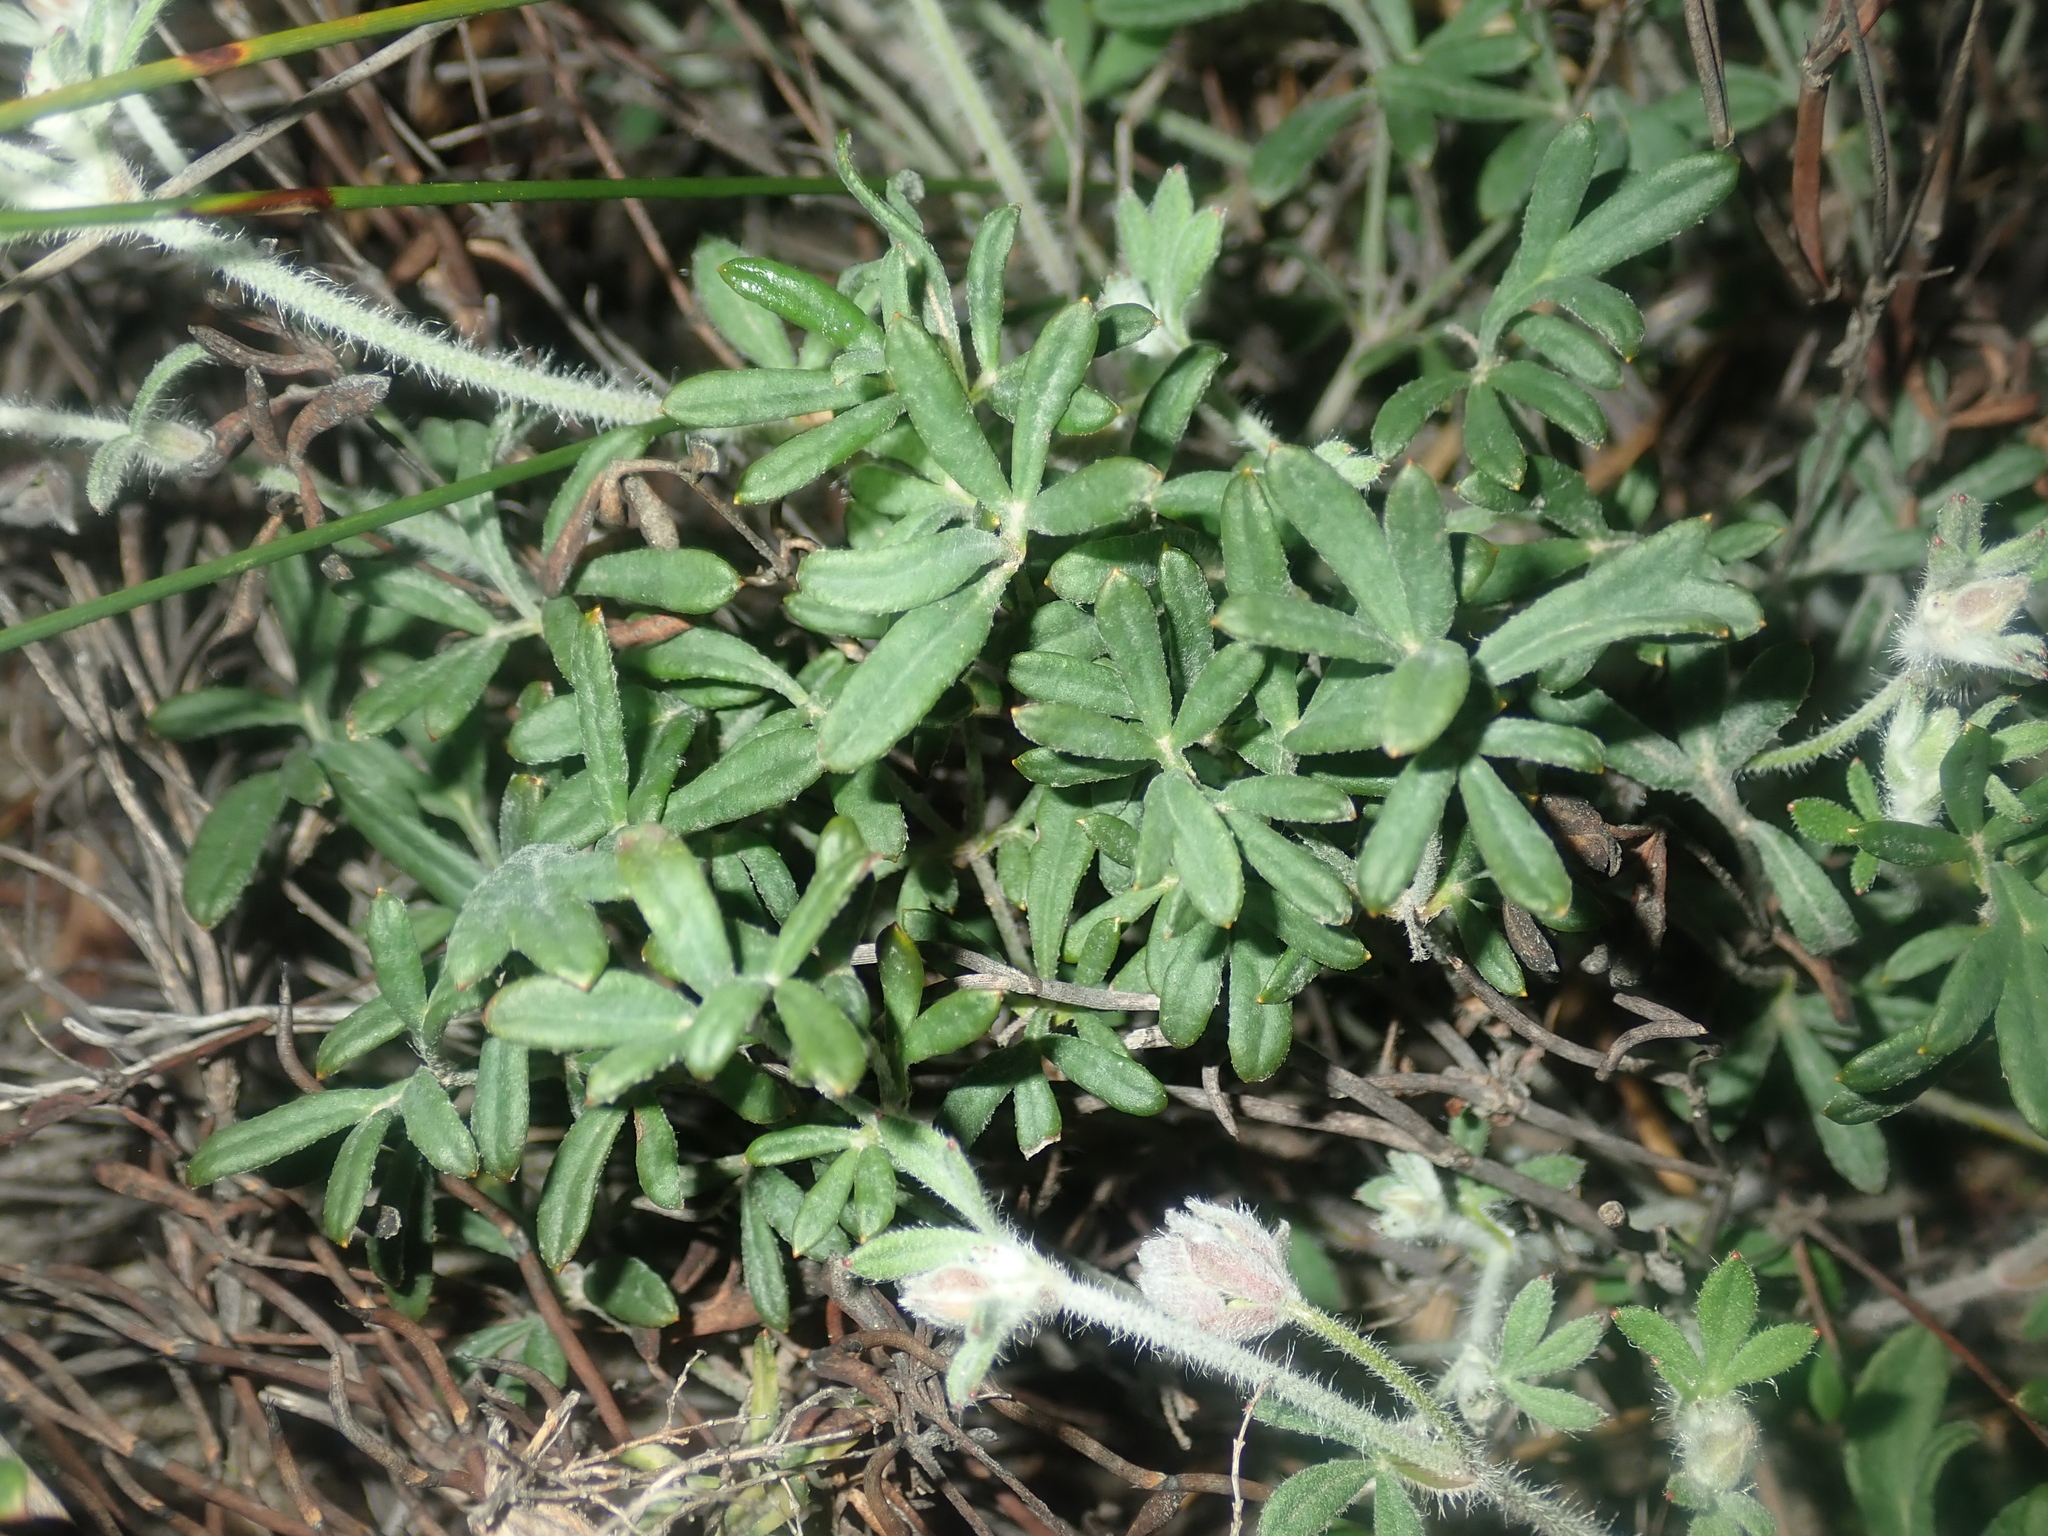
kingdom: Plantae
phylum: Tracheophyta
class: Magnoliopsida
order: Apiales
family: Apiaceae
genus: Xanthosia
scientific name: Xanthosia huegelii
